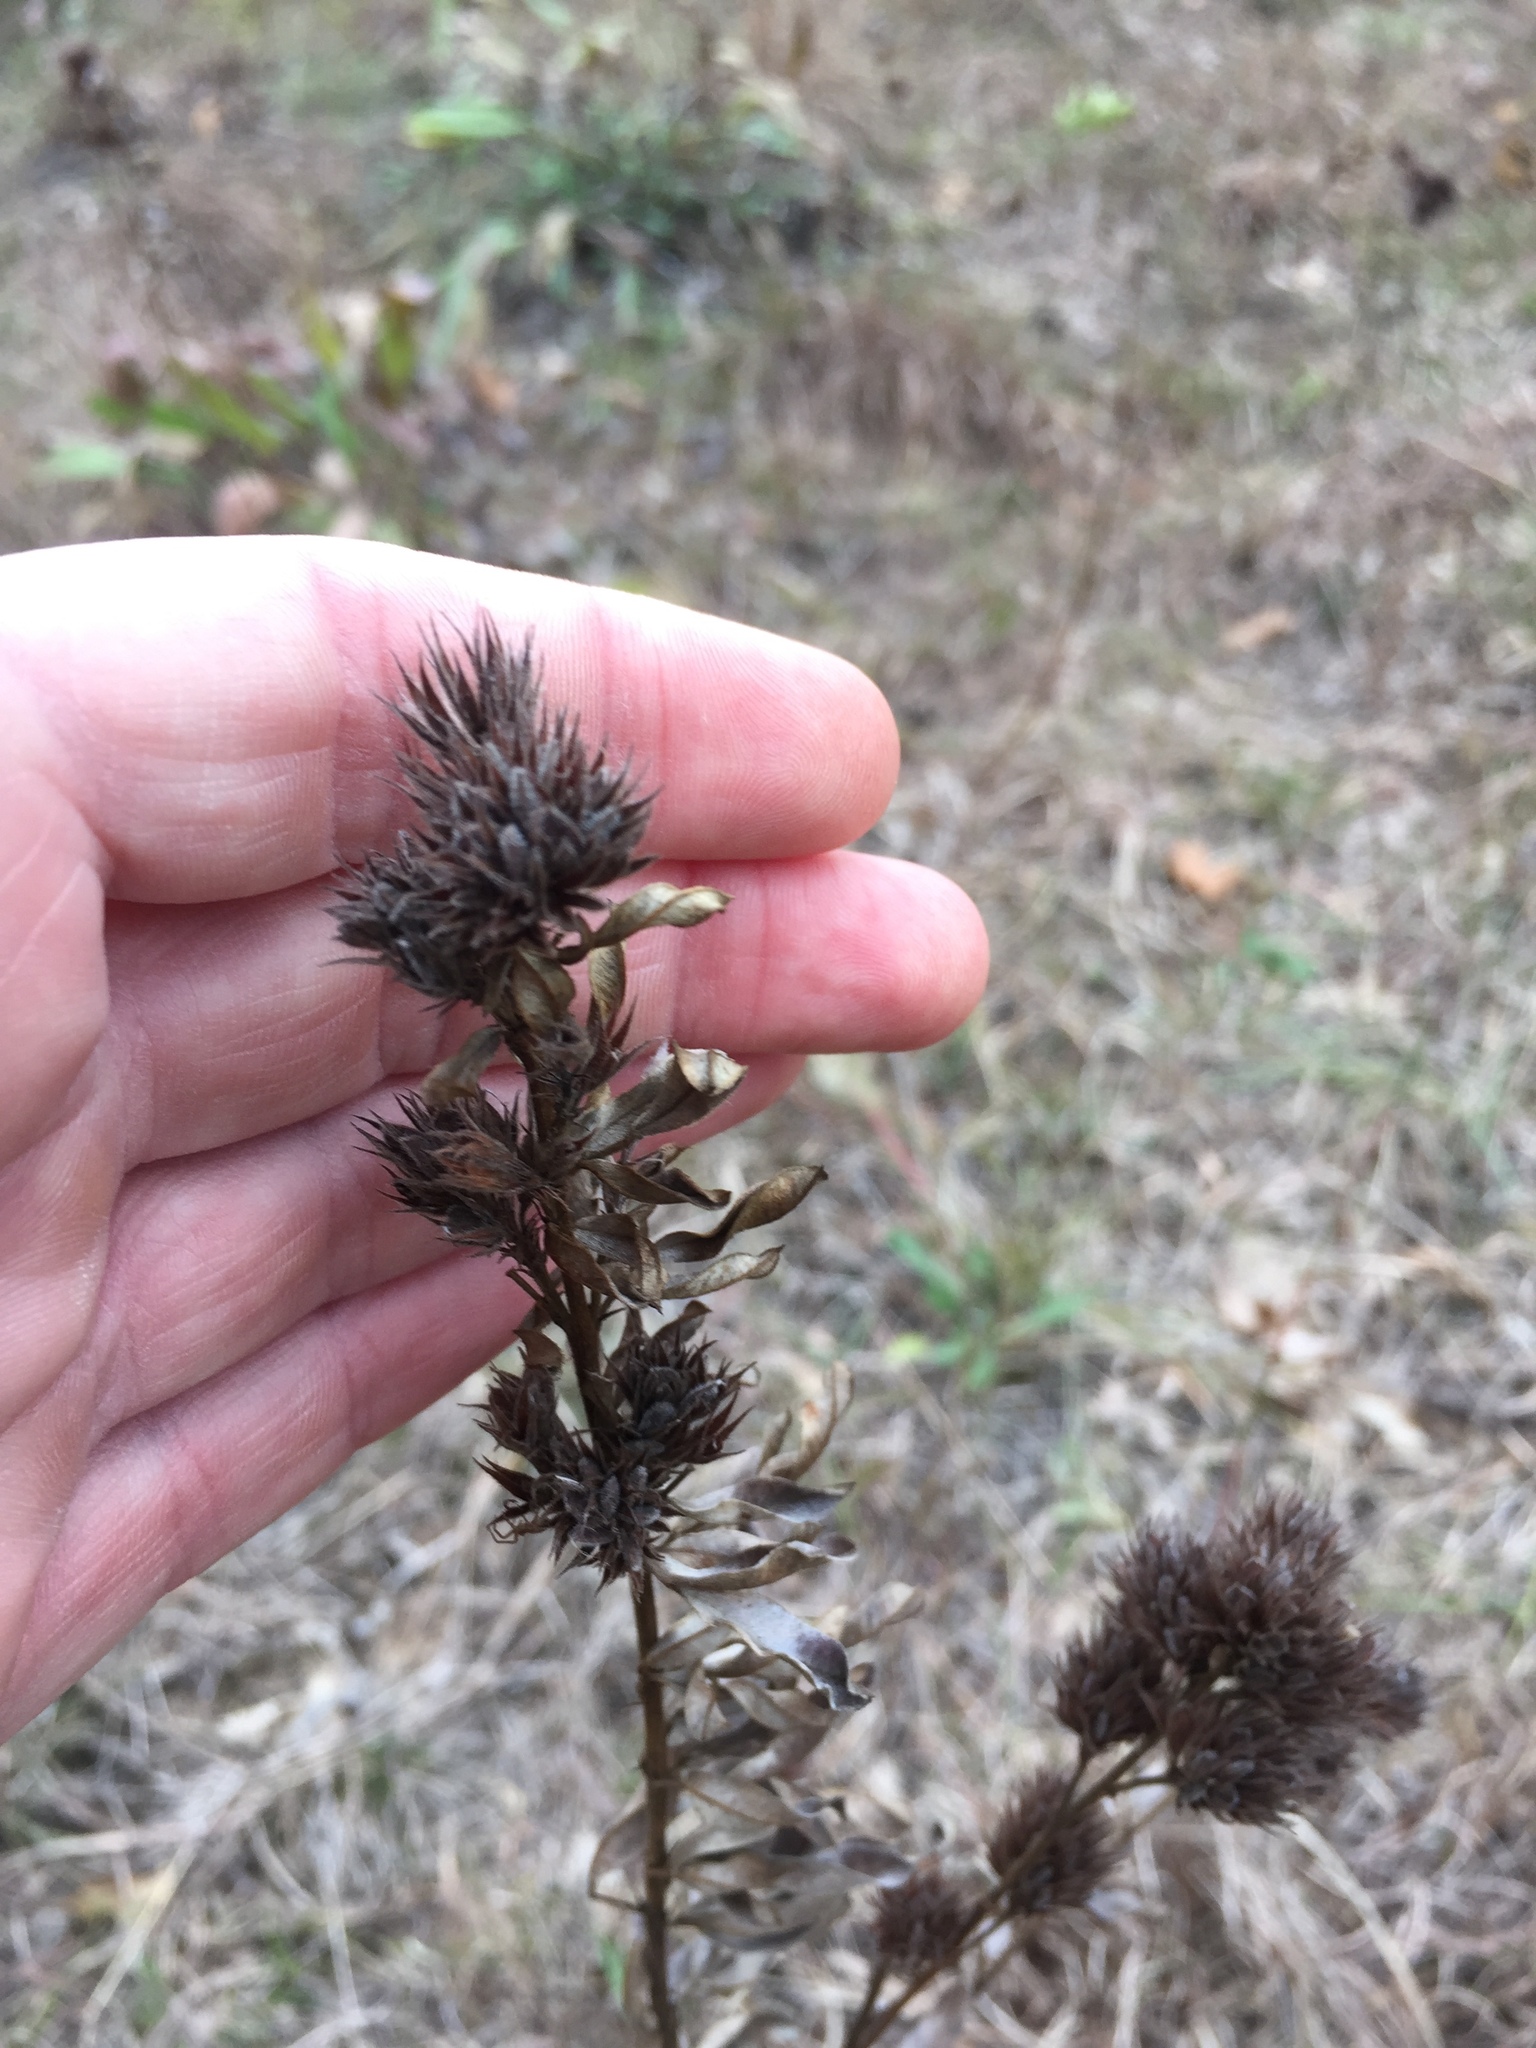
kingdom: Plantae
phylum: Tracheophyta
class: Magnoliopsida
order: Fabales
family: Fabaceae
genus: Lespedeza
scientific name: Lespedeza capitata
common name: Dusty clover
